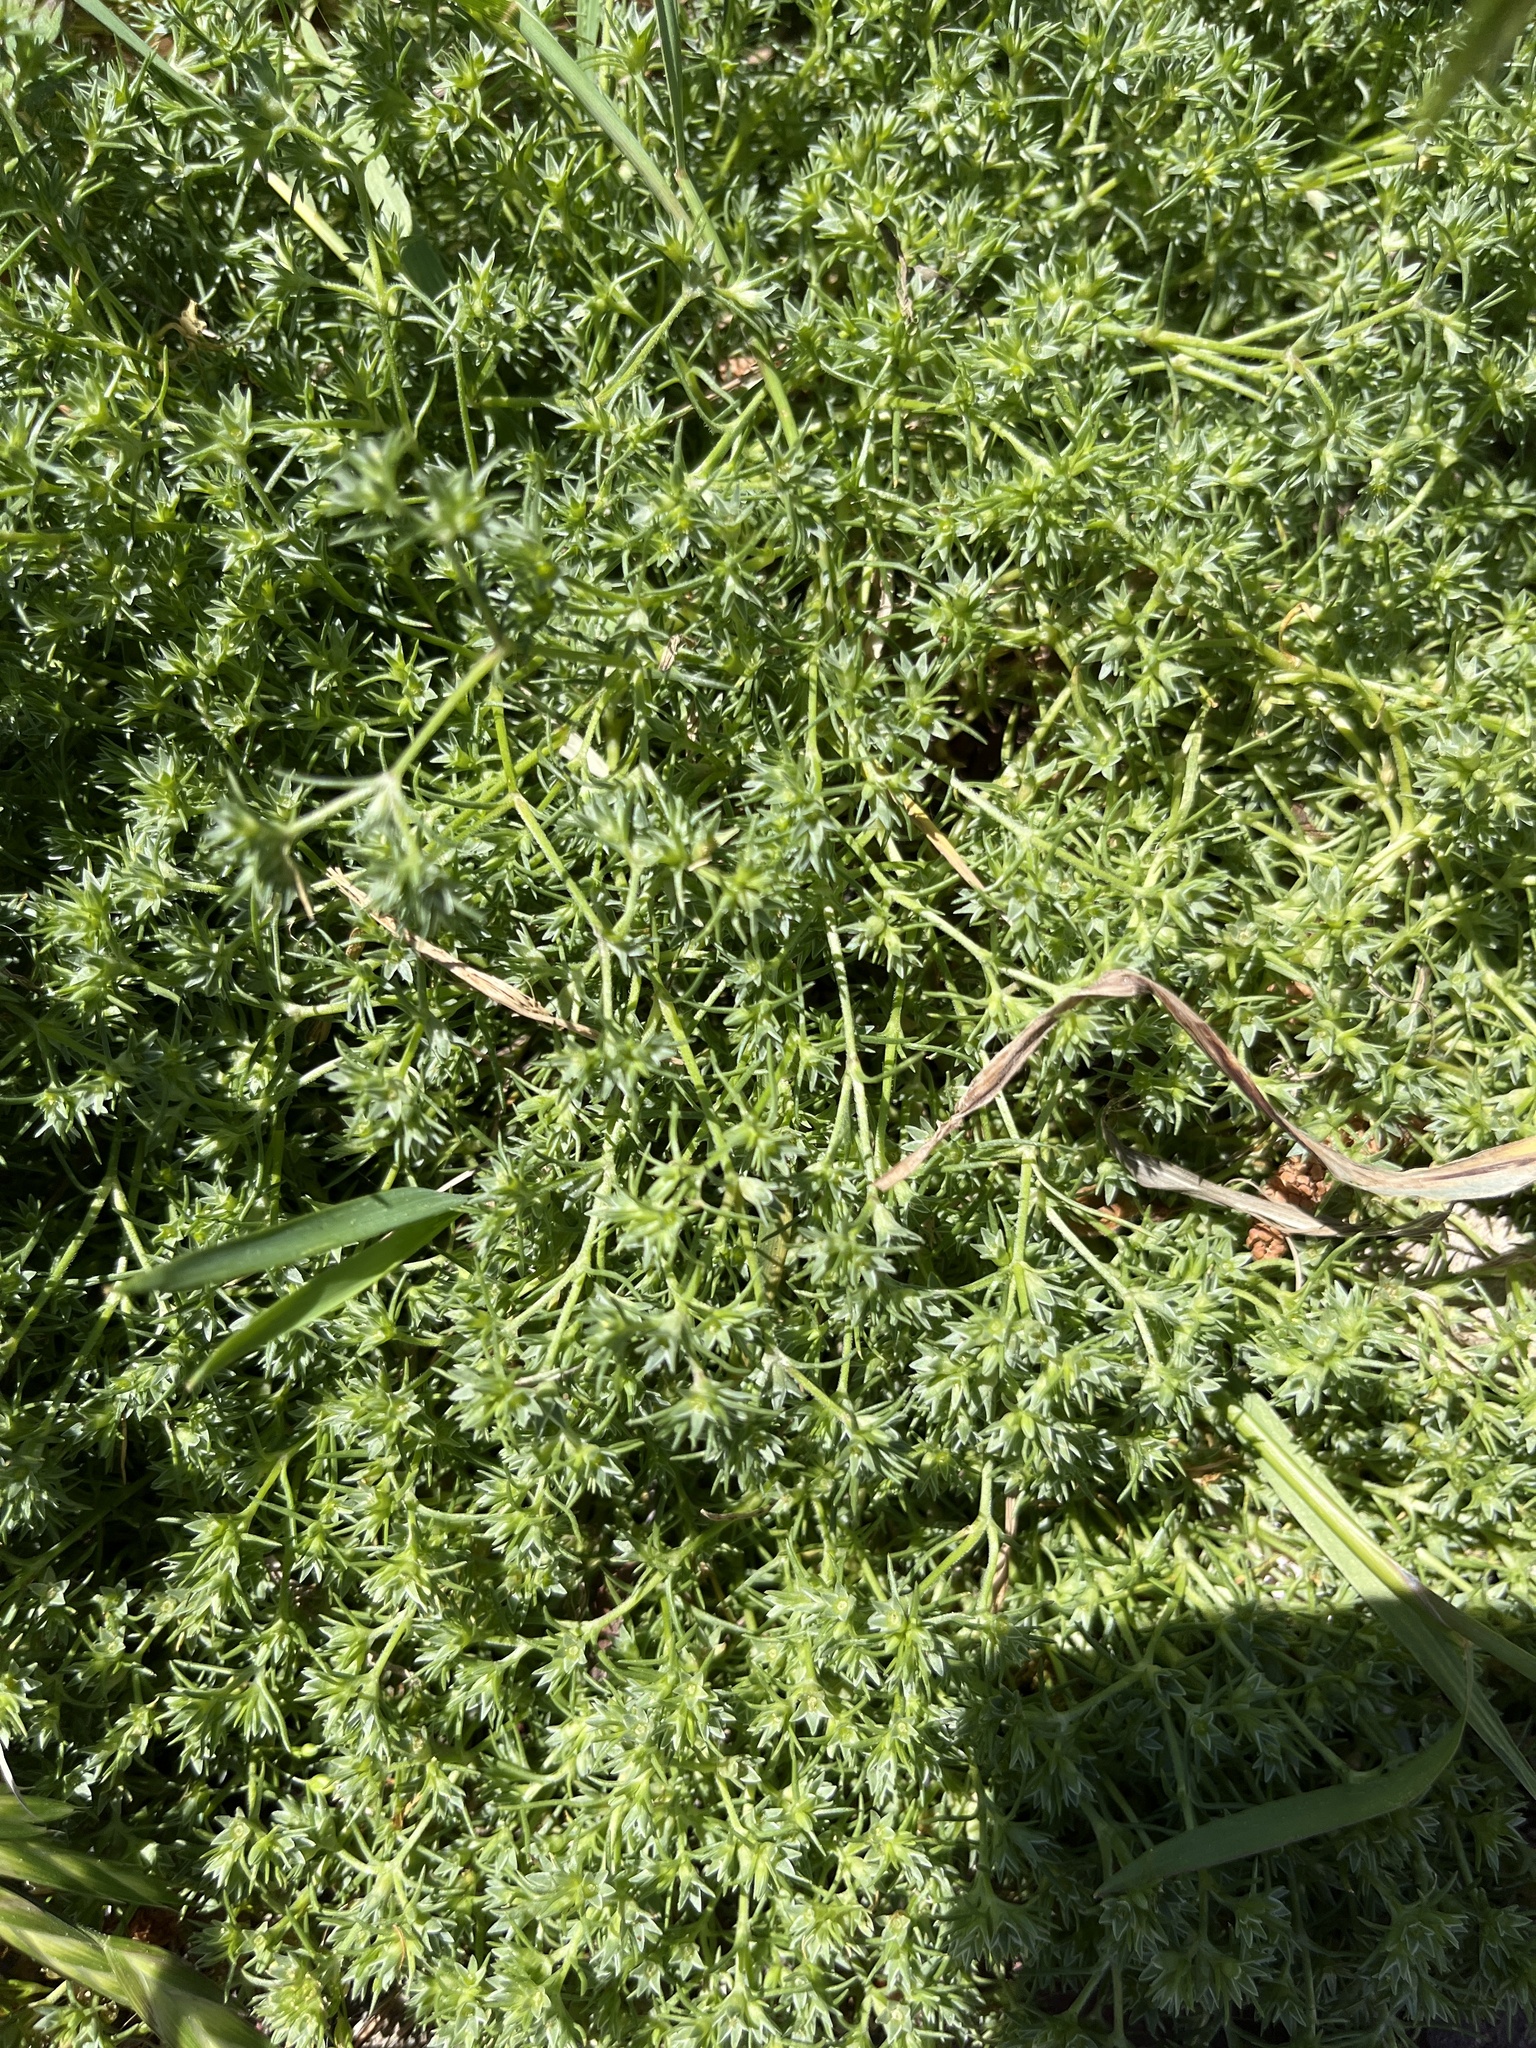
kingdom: Plantae
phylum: Tracheophyta
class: Magnoliopsida
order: Caryophyllales
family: Caryophyllaceae
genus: Scleranthus
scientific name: Scleranthus annuus
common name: Annual knawel
